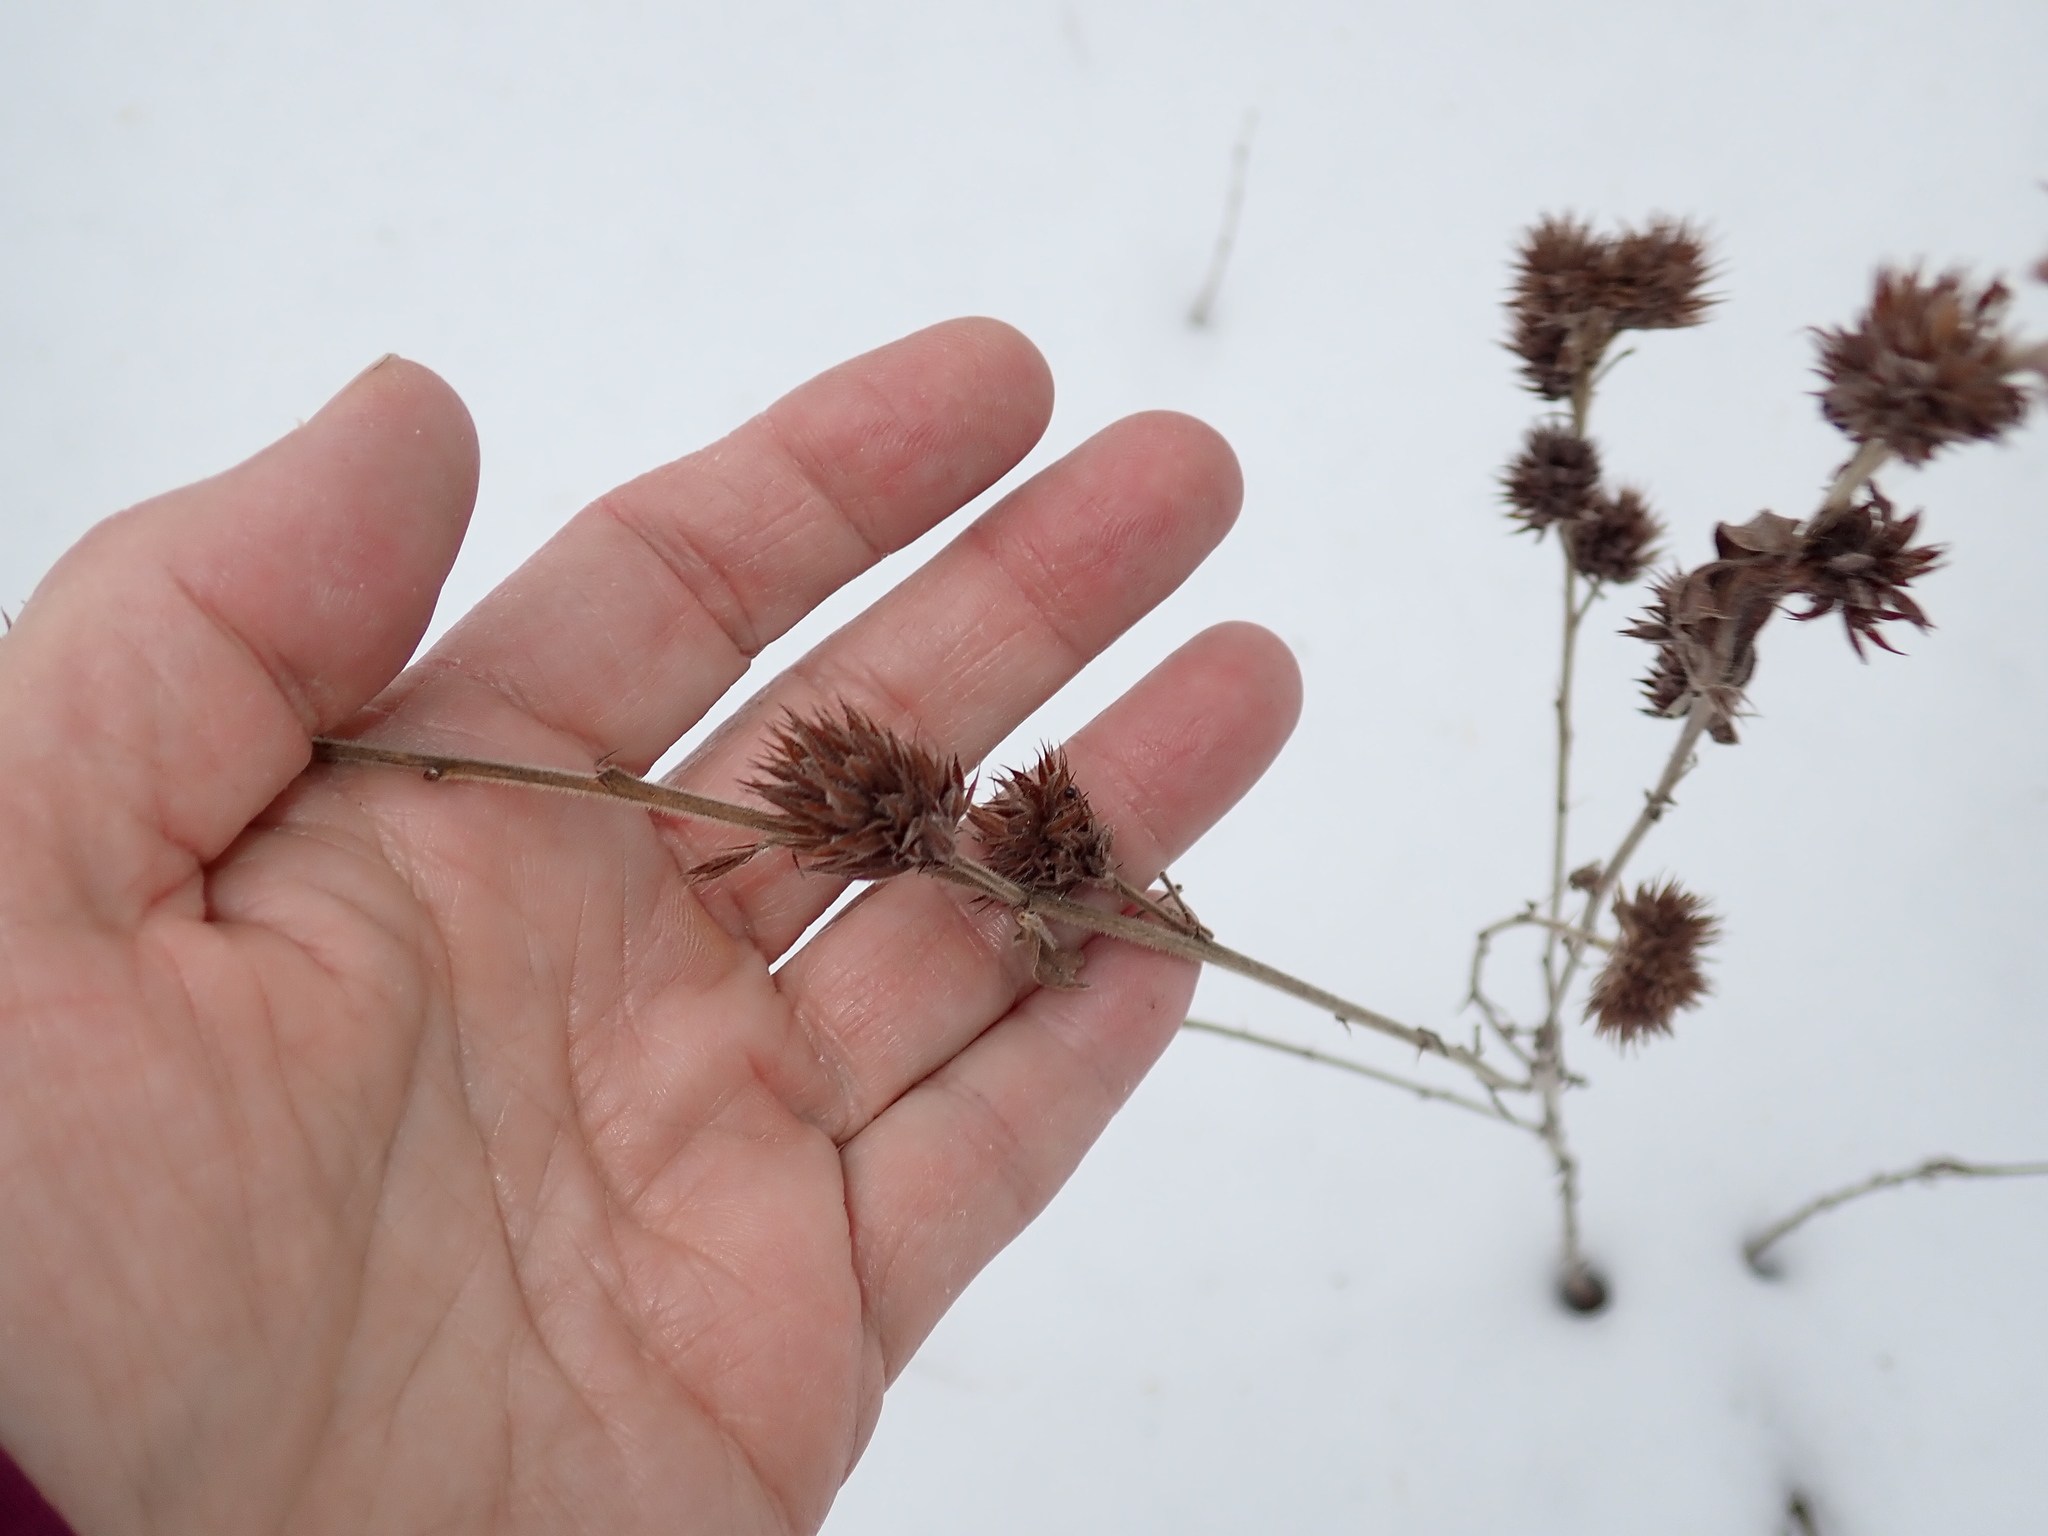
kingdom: Plantae
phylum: Tracheophyta
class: Magnoliopsida
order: Fabales
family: Fabaceae
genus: Lespedeza
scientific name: Lespedeza capitata
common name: Dusty clover
